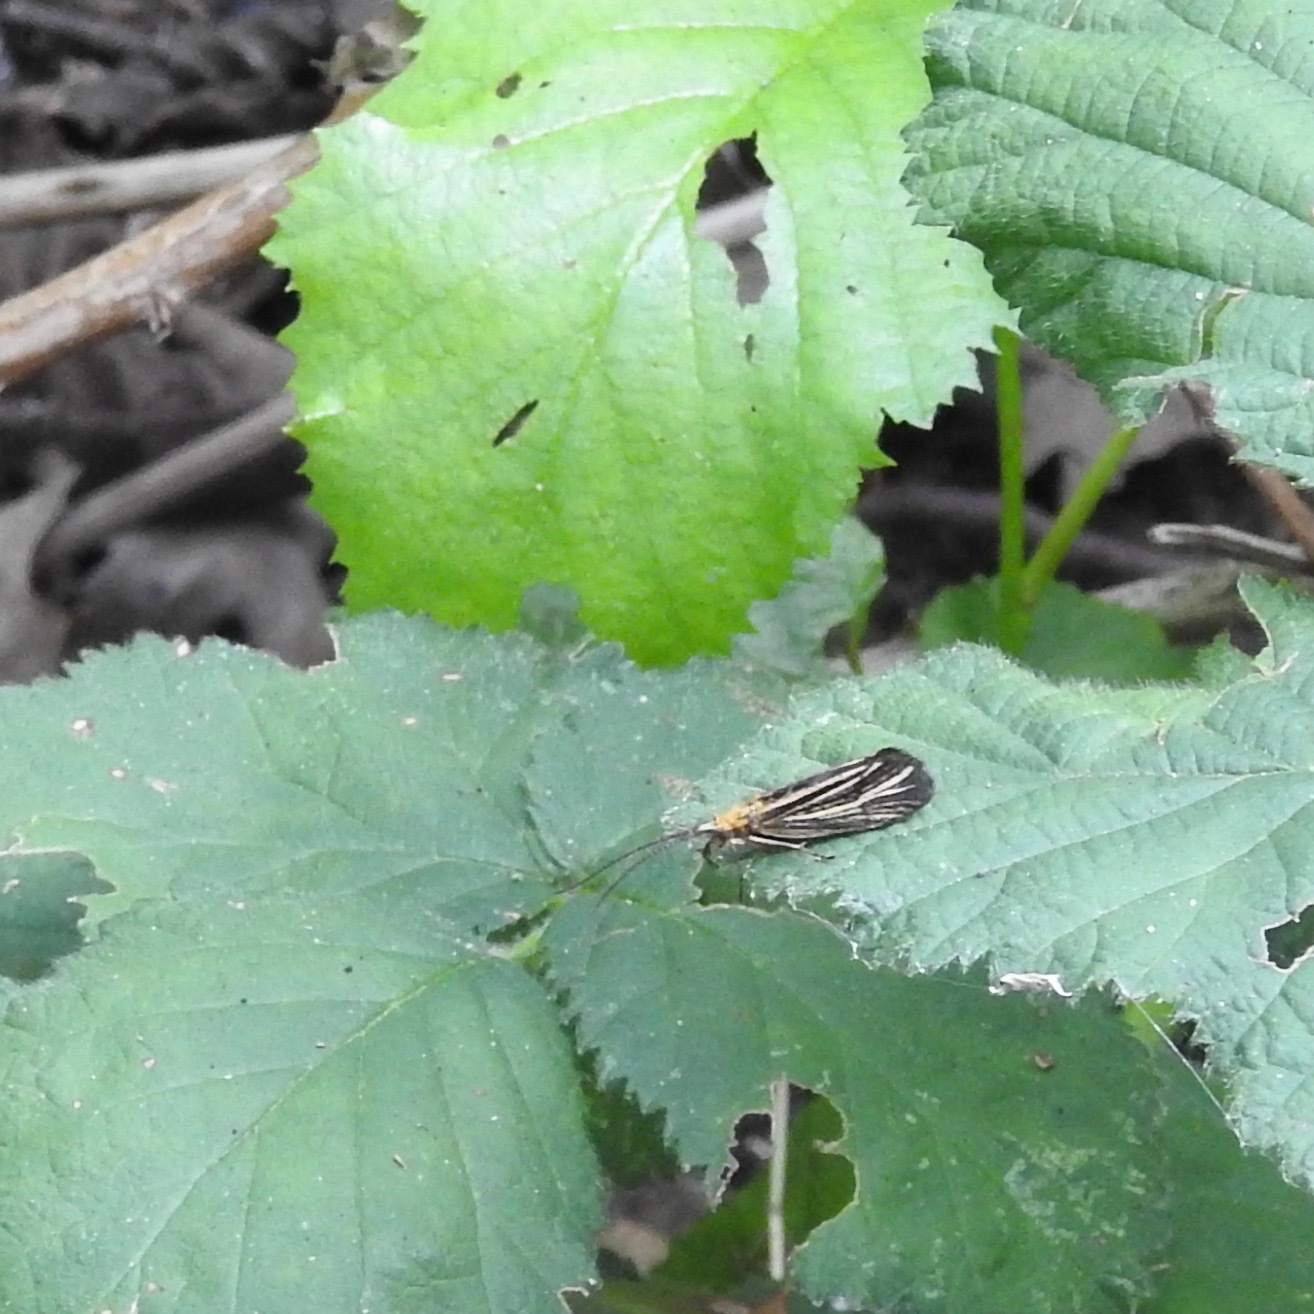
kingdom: Animalia
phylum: Arthropoda
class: Insecta
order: Trichoptera
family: Odontoceridae
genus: Nerophilus
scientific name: Nerophilus californicus
